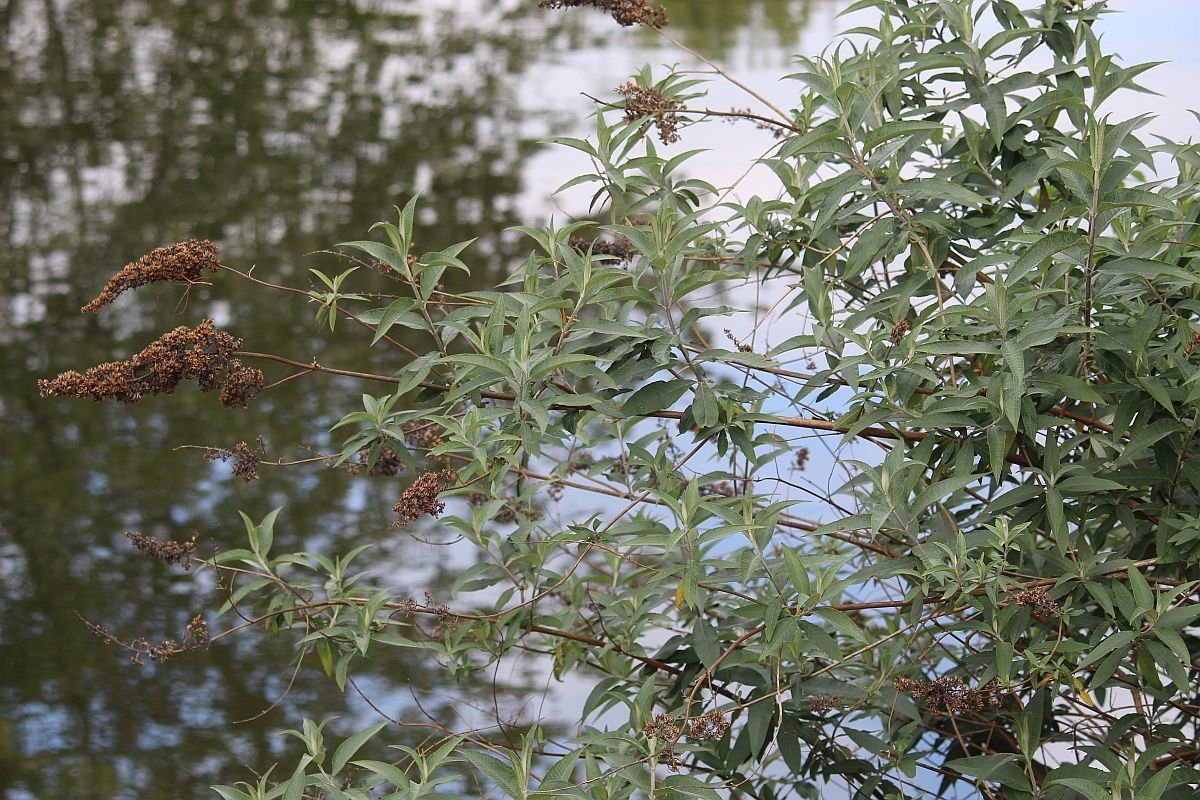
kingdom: Plantae
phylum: Tracheophyta
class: Magnoliopsida
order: Lamiales
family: Scrophulariaceae
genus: Buddleja
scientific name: Buddleja davidii
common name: Butterfly-bush
